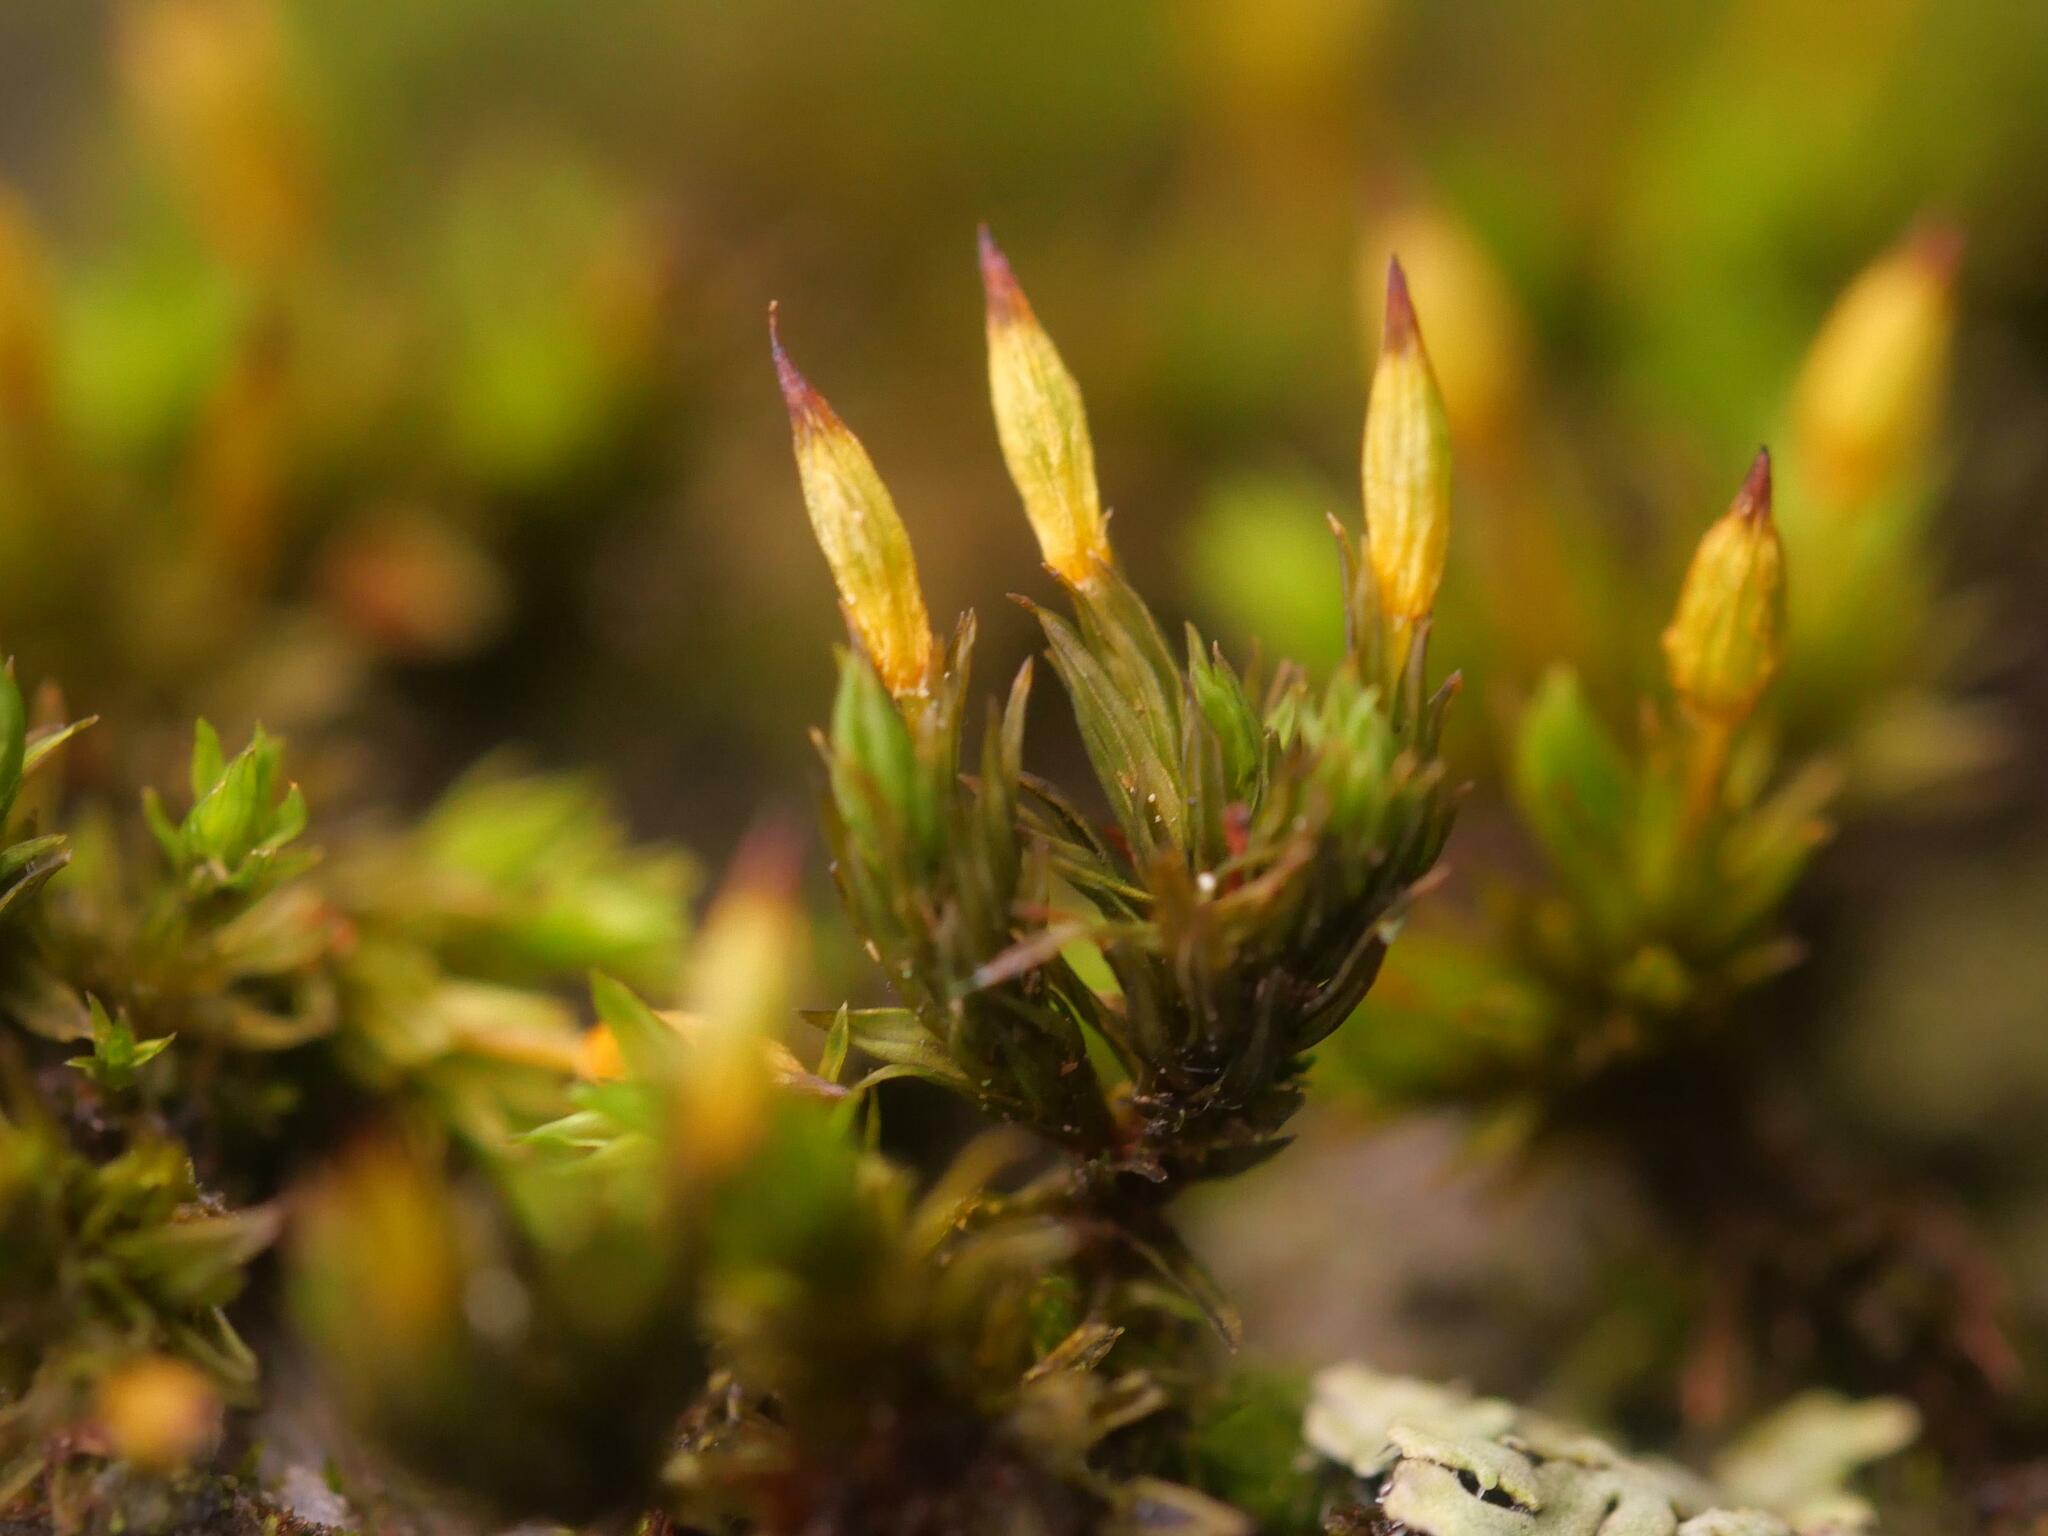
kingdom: Plantae
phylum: Bryophyta
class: Bryopsida
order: Orthotrichales
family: Orthotrichaceae
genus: Orthotrichum
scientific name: Orthotrichum anomalum
